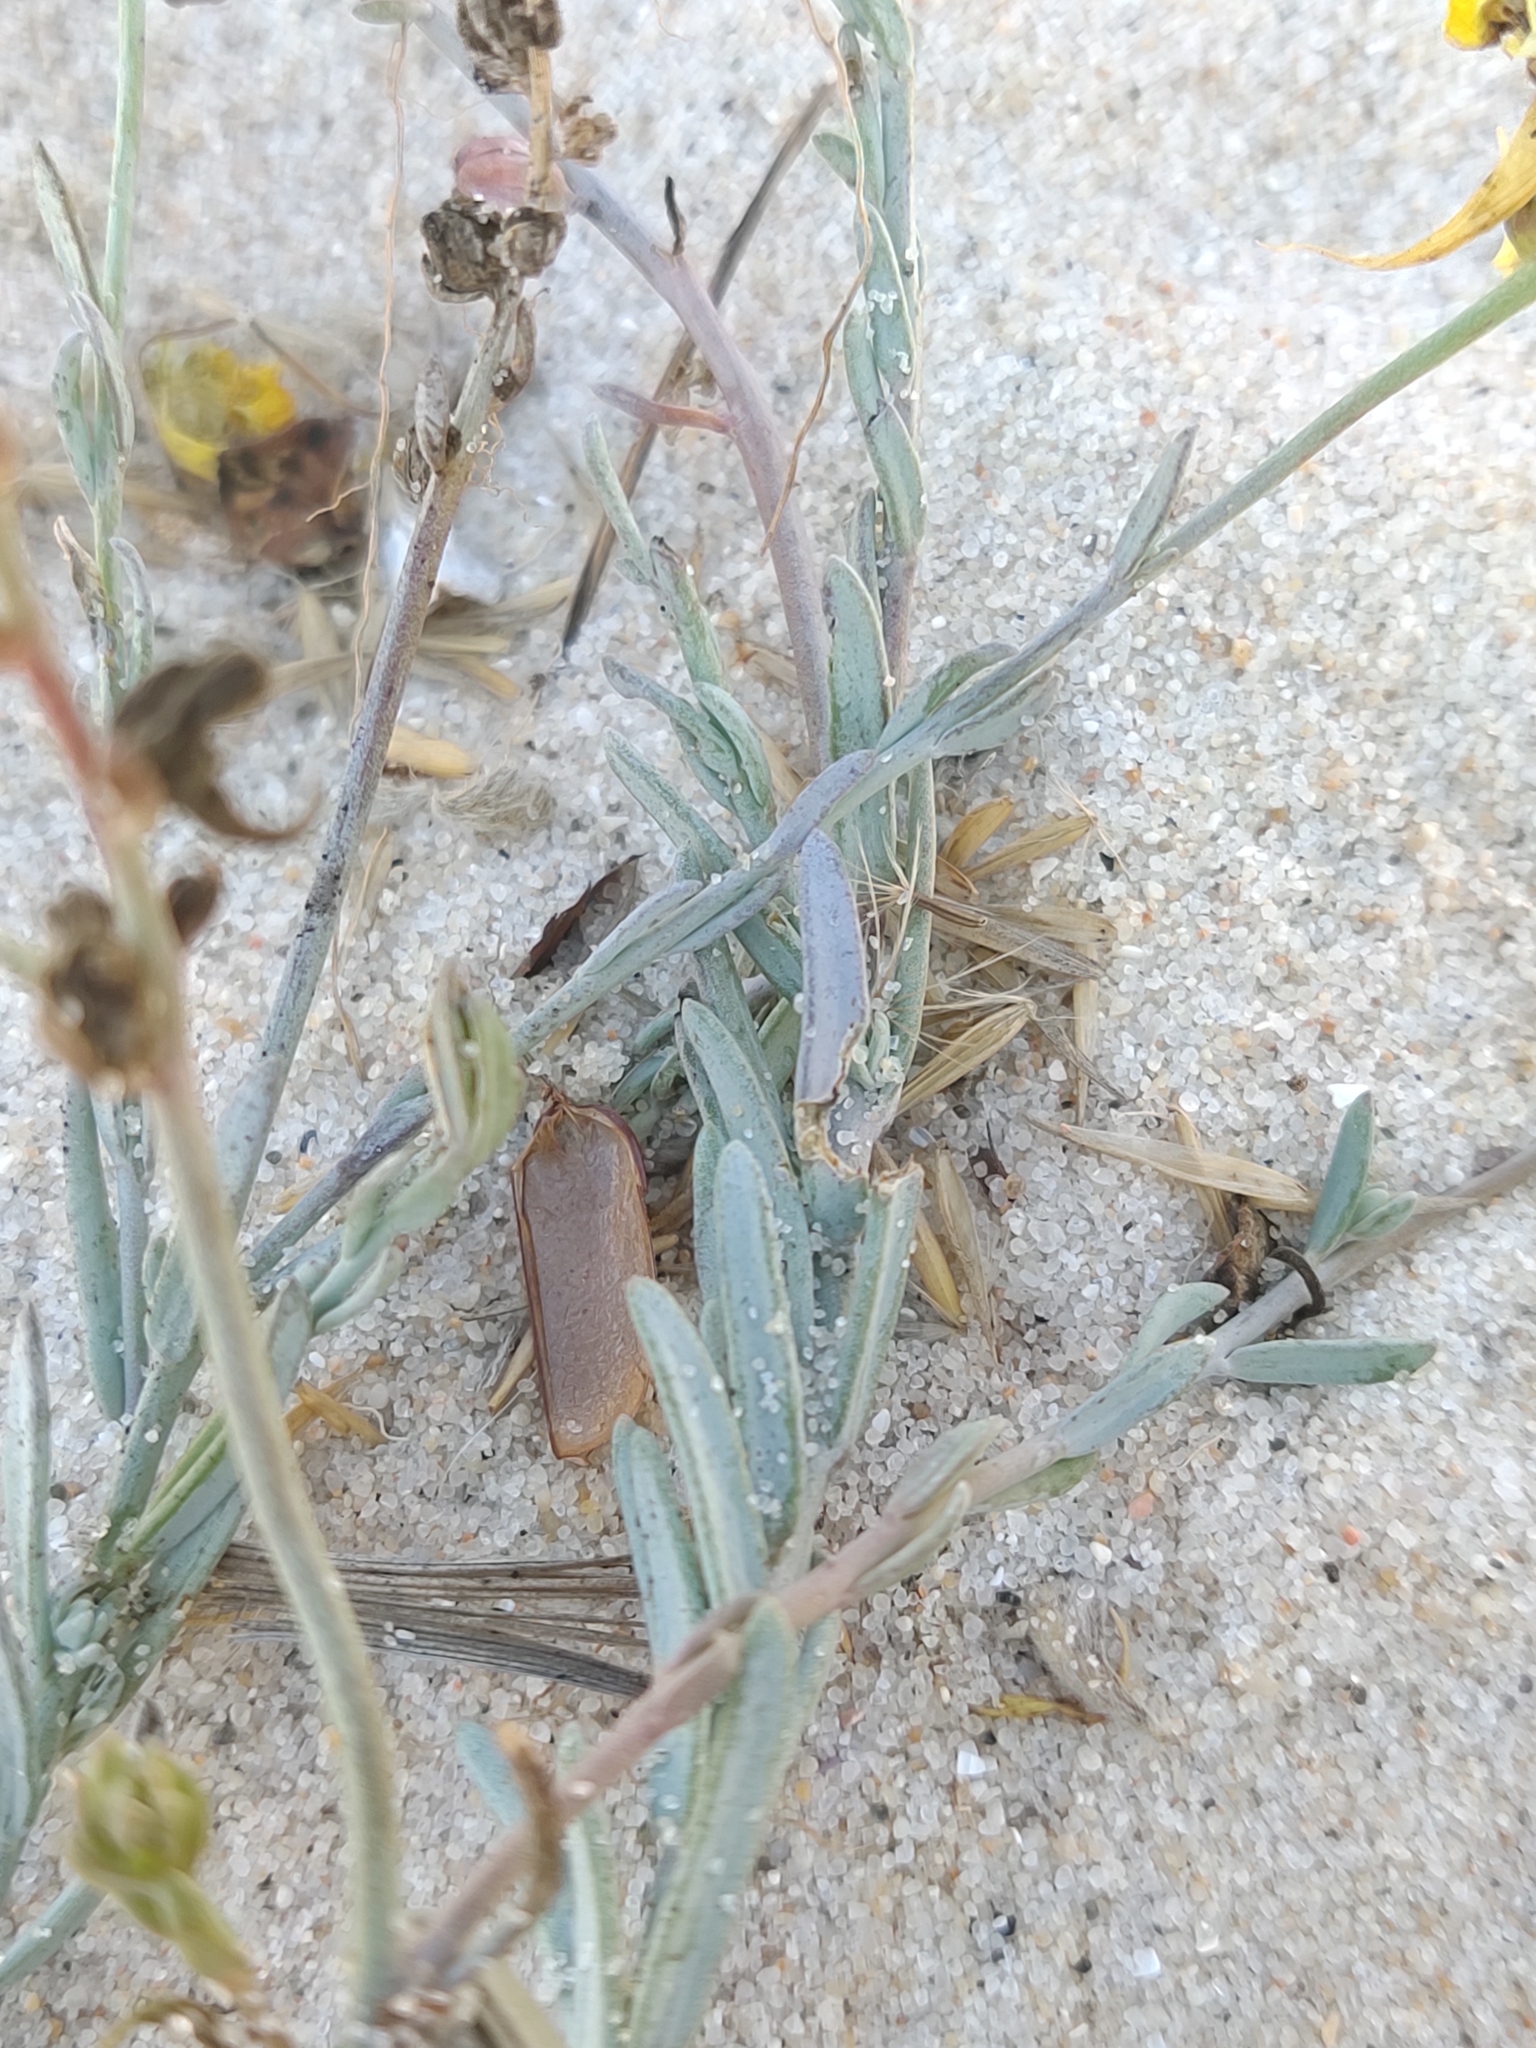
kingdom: Plantae
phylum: Tracheophyta
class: Magnoliopsida
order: Lamiales
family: Plantaginaceae
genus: Linaria
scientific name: Linaria polygalifolia
